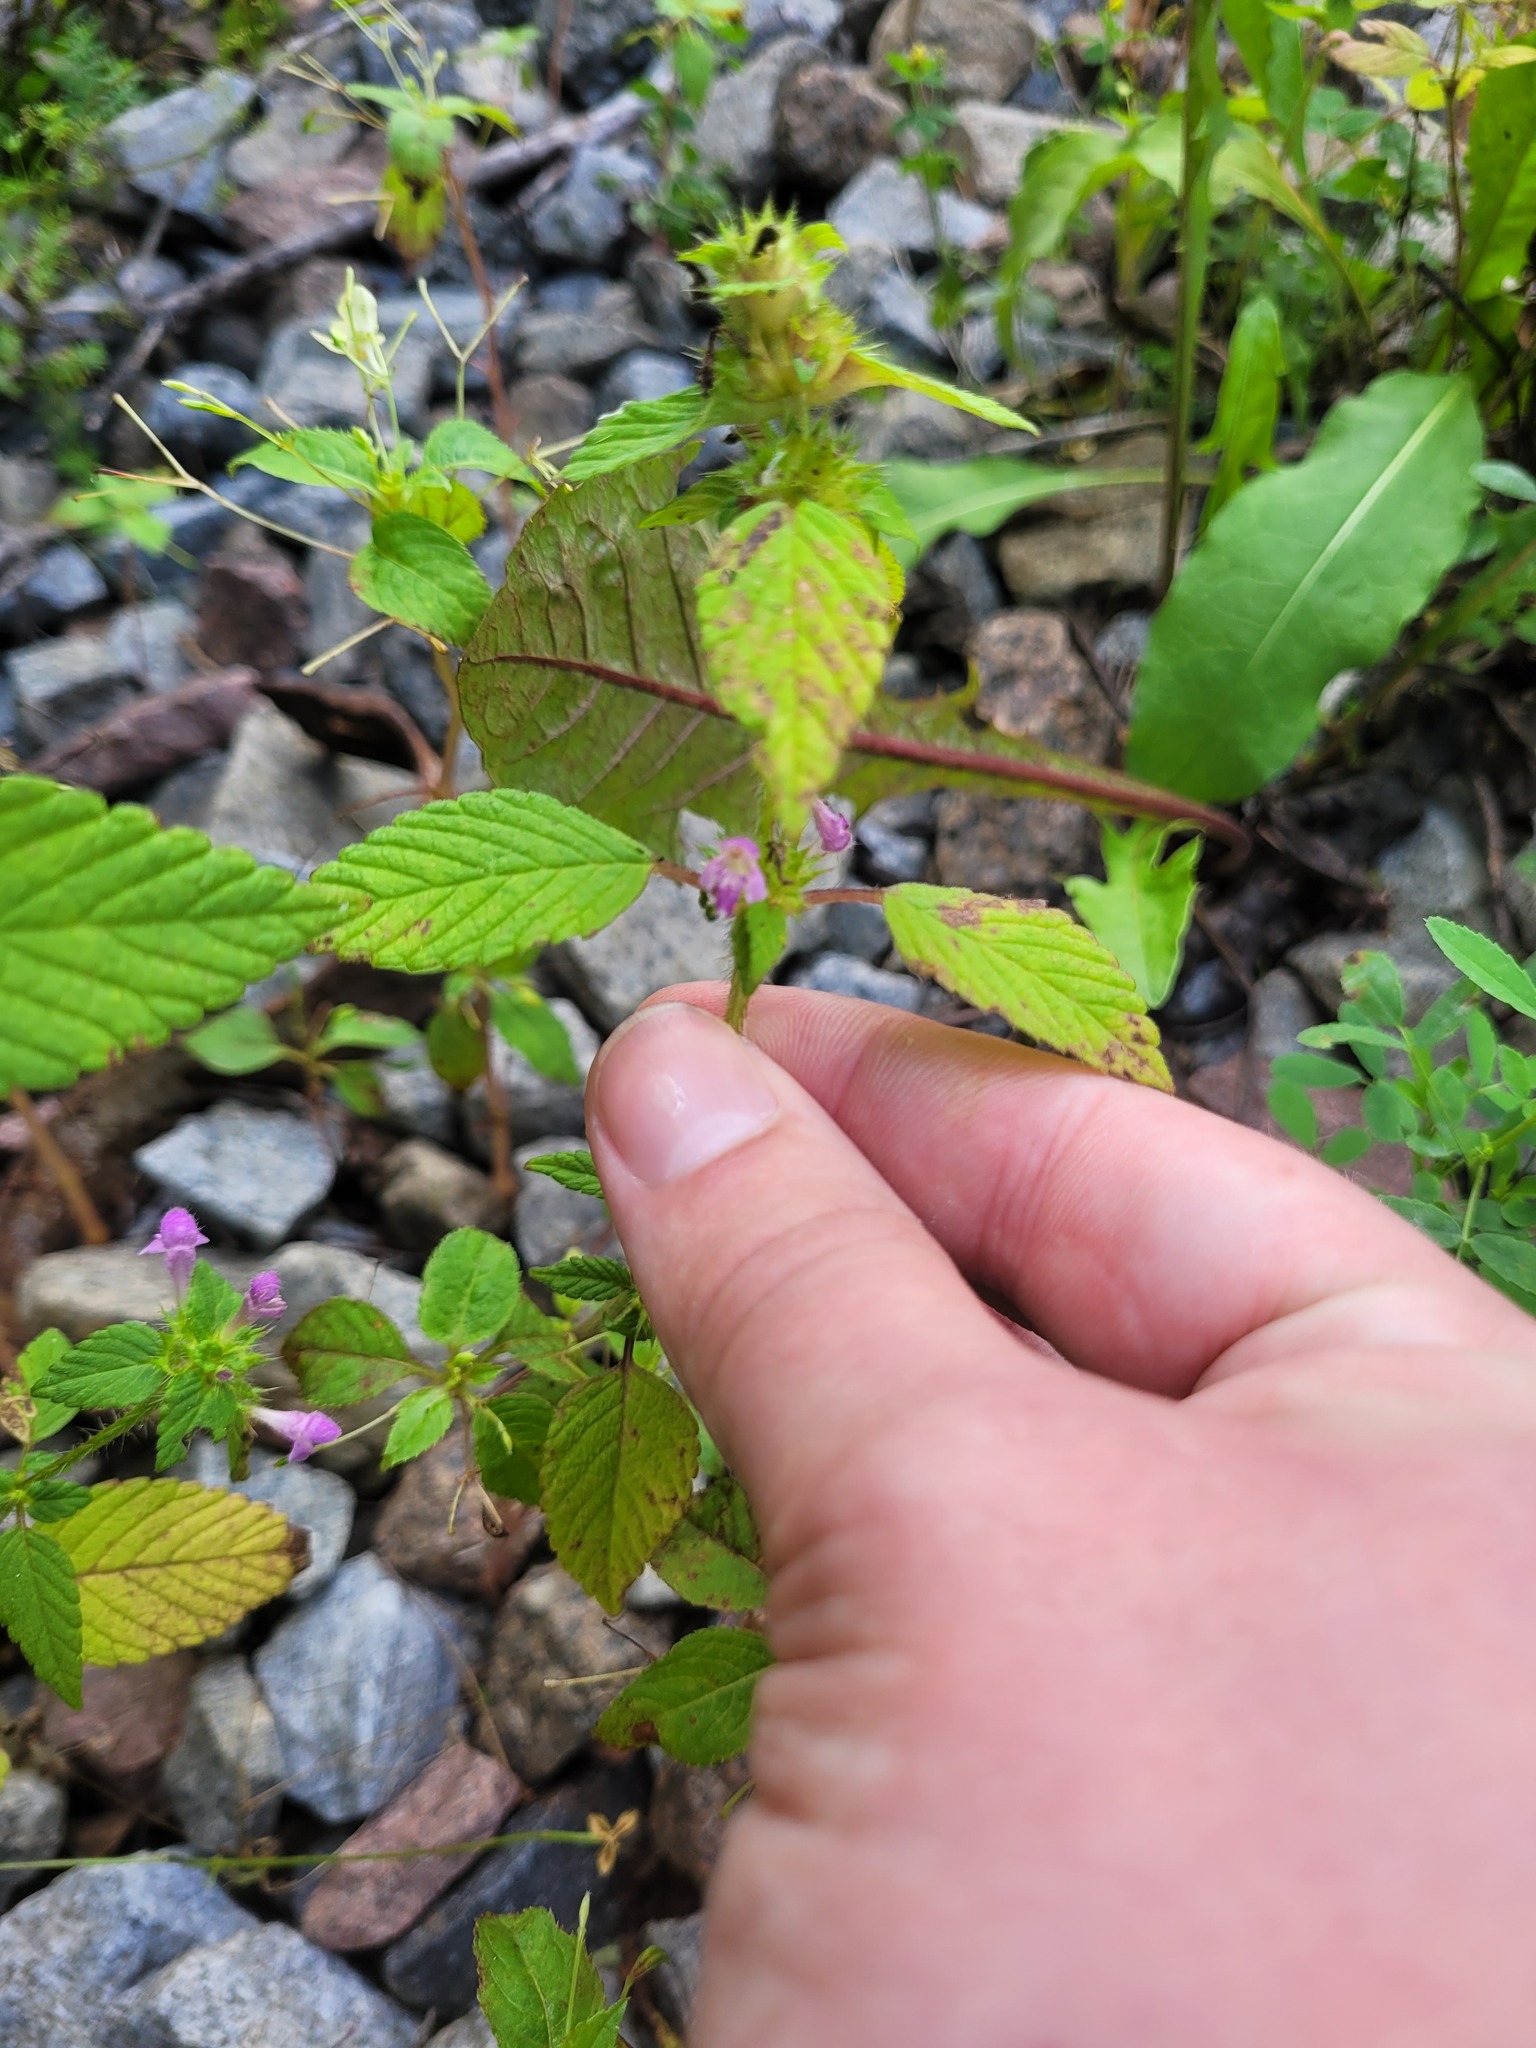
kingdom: Plantae
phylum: Tracheophyta
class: Magnoliopsida
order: Lamiales
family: Lamiaceae
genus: Galeopsis
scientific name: Galeopsis bifida
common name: Bifid hemp-nettle
